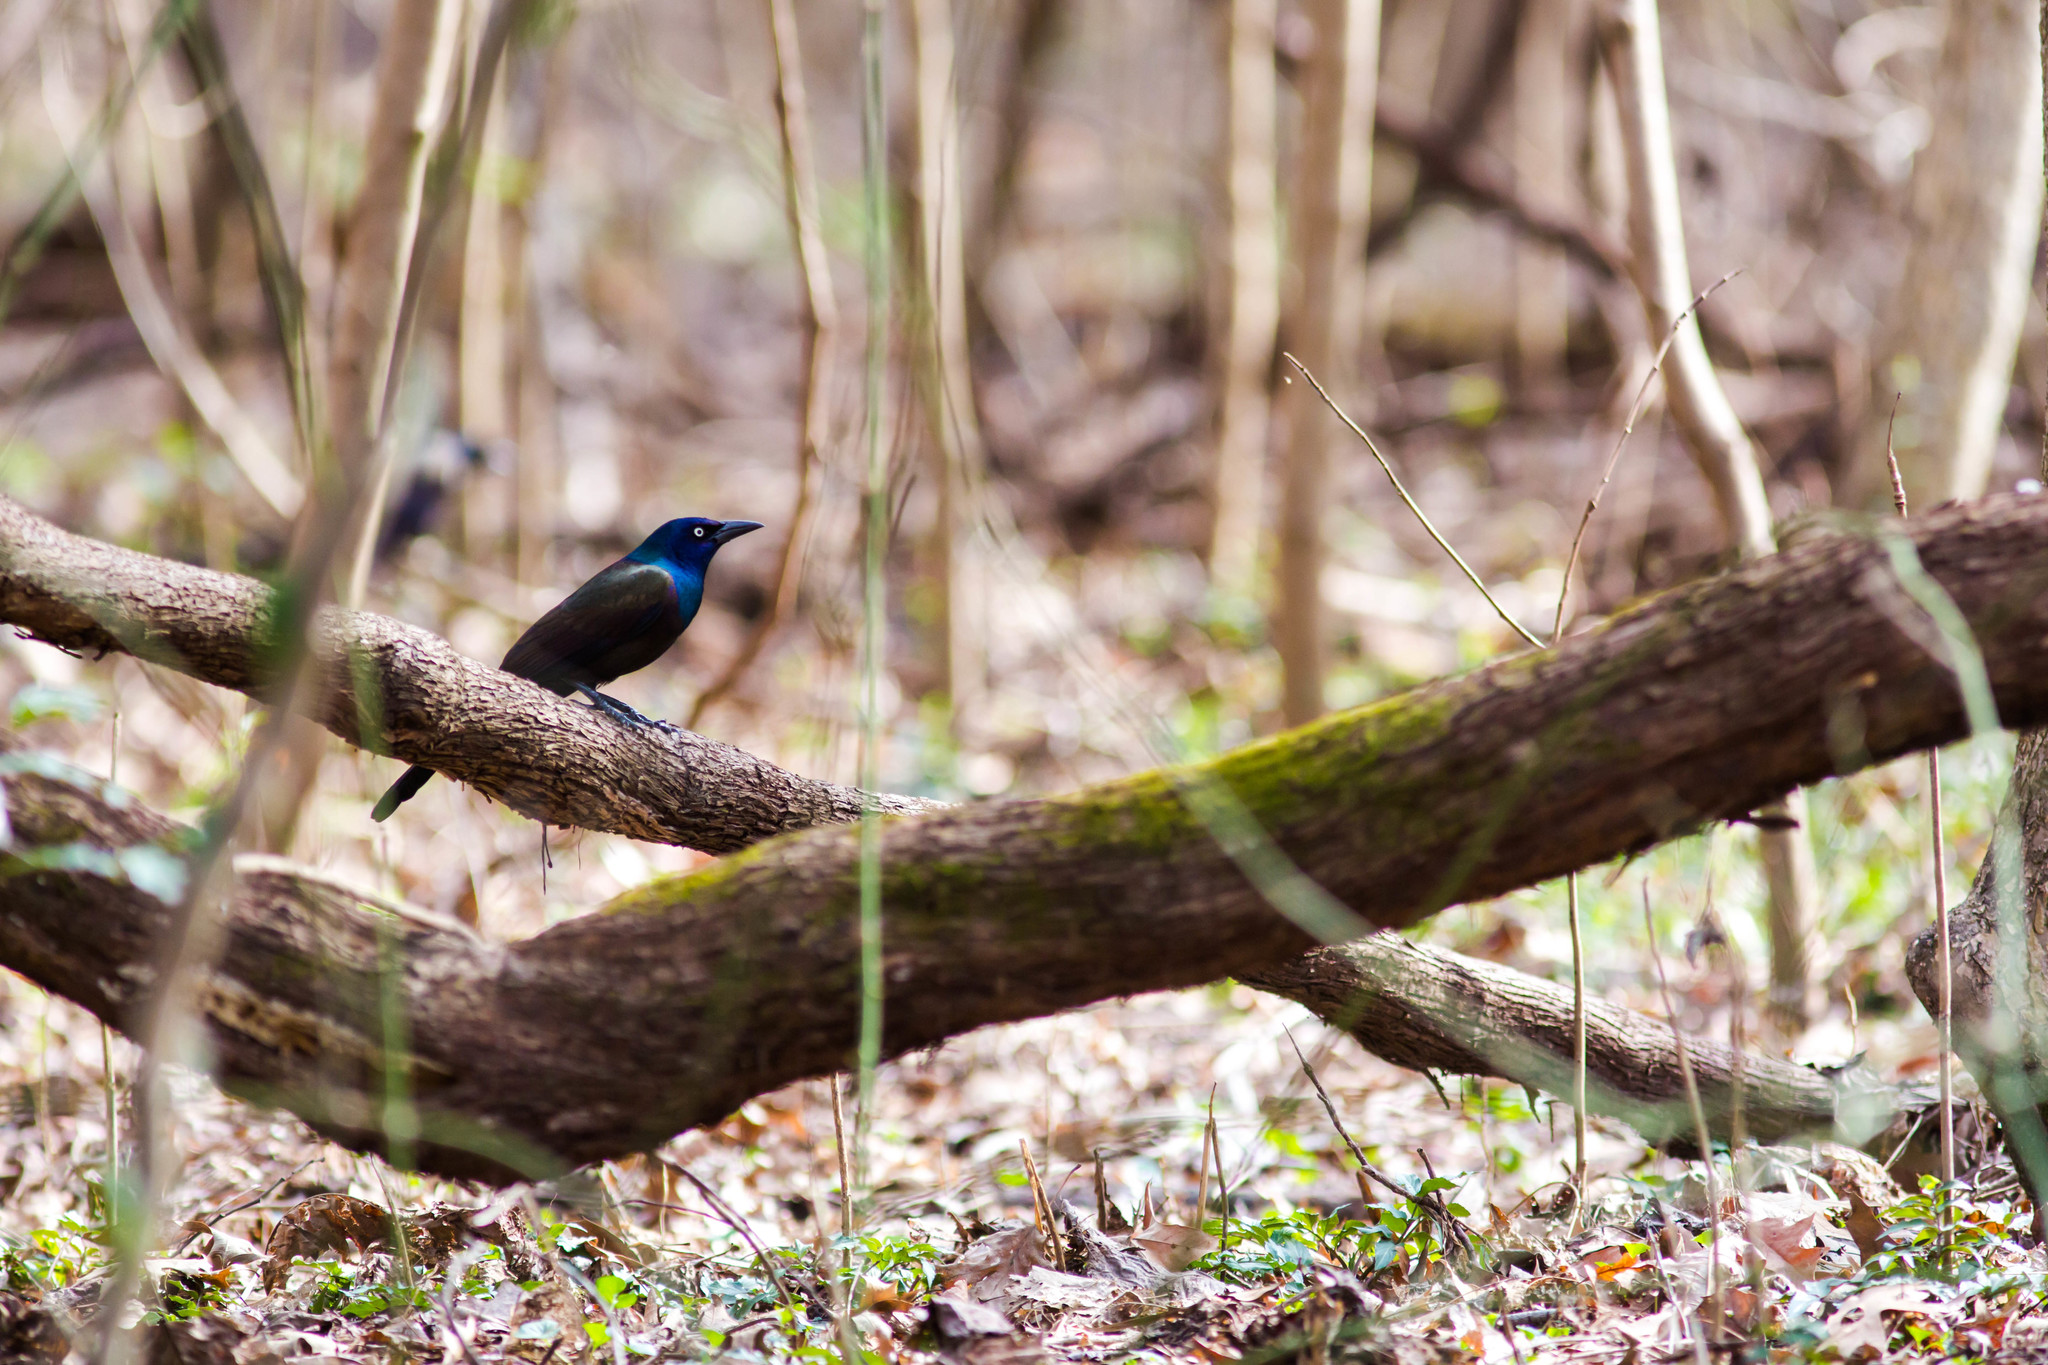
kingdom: Animalia
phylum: Chordata
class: Aves
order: Passeriformes
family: Icteridae
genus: Quiscalus
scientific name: Quiscalus quiscula
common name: Common grackle
